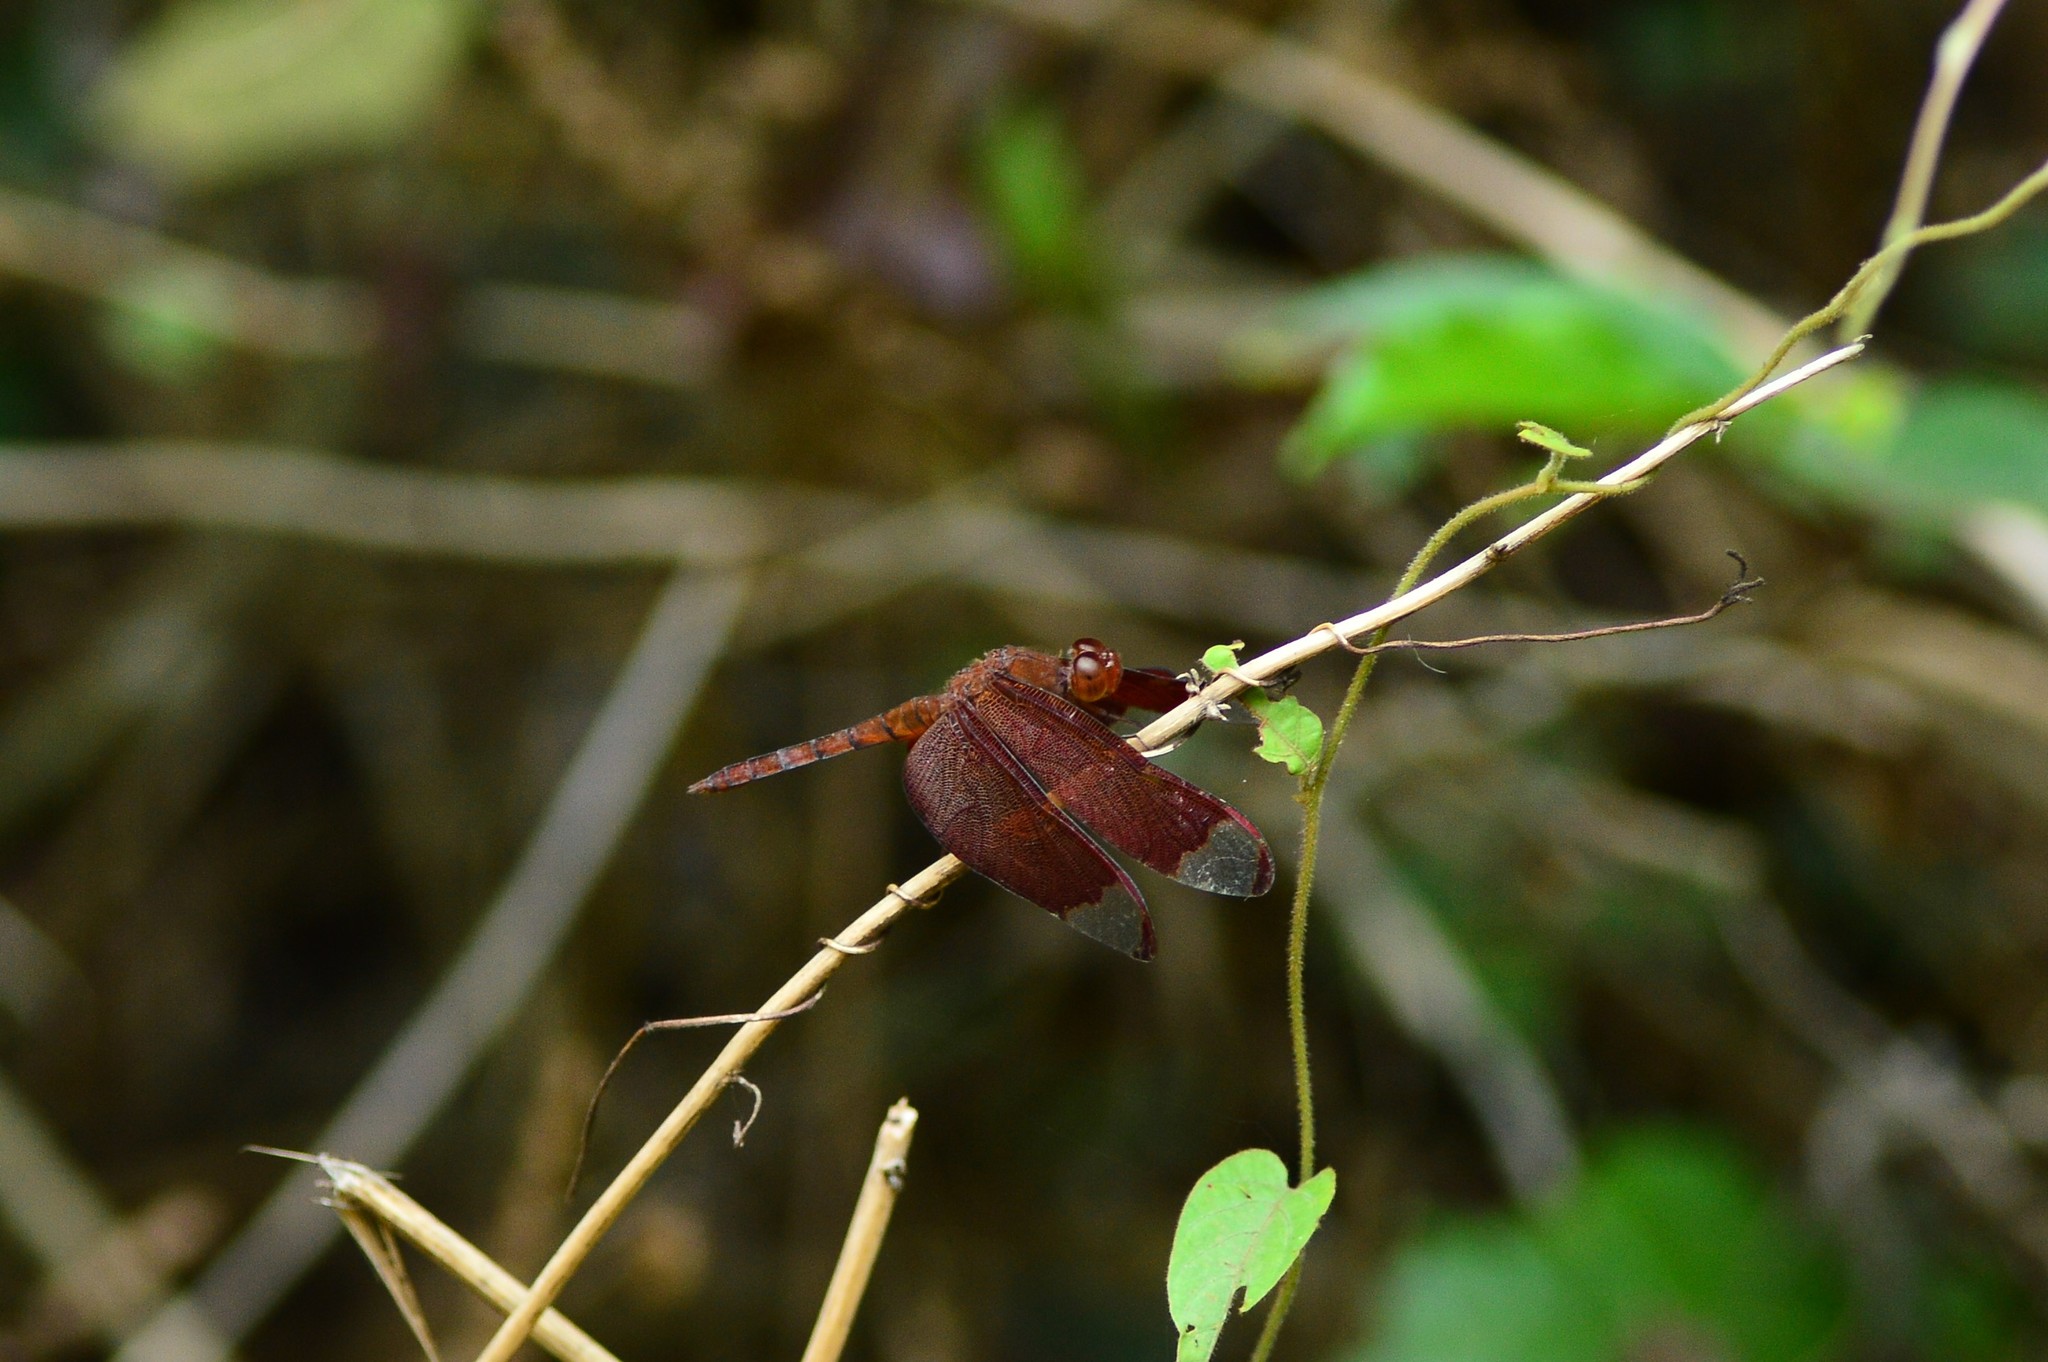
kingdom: Animalia
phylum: Arthropoda
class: Insecta
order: Odonata
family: Libellulidae
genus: Neurothemis
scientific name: Neurothemis fulvia
